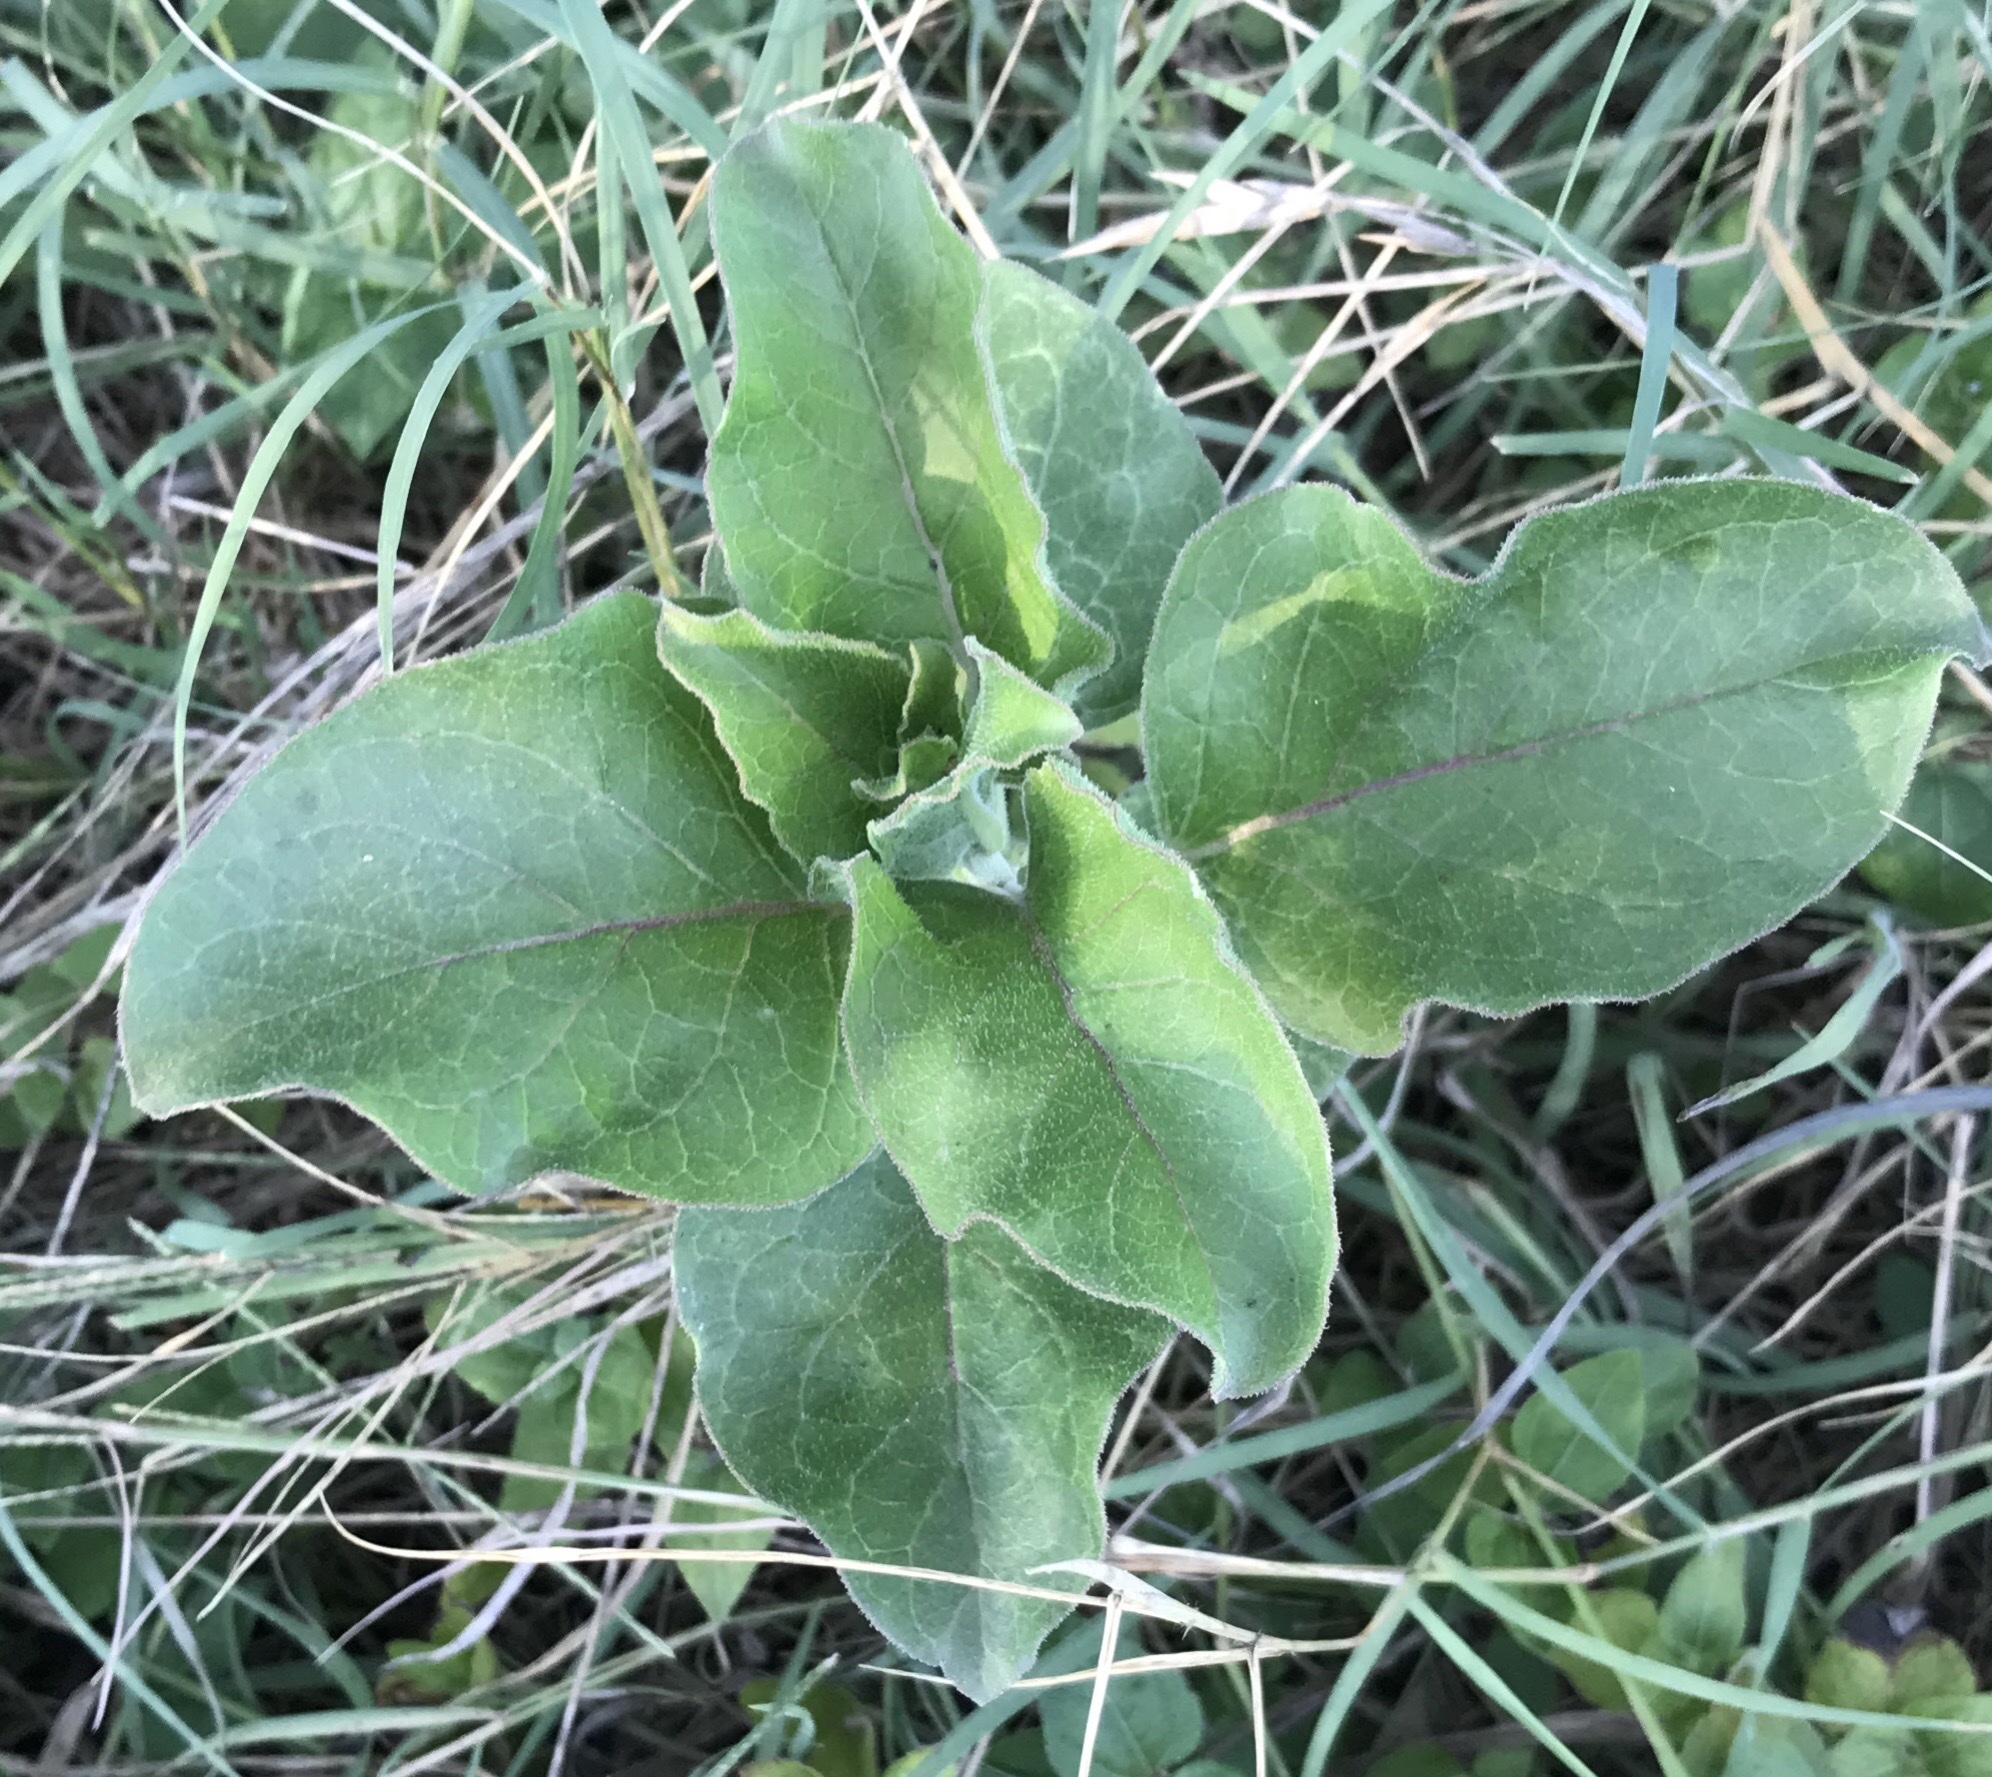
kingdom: Plantae
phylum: Tracheophyta
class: Magnoliopsida
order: Gentianales
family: Apocynaceae
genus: Asclepias
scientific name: Asclepias oenotheroides
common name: Zizotes milkweed
